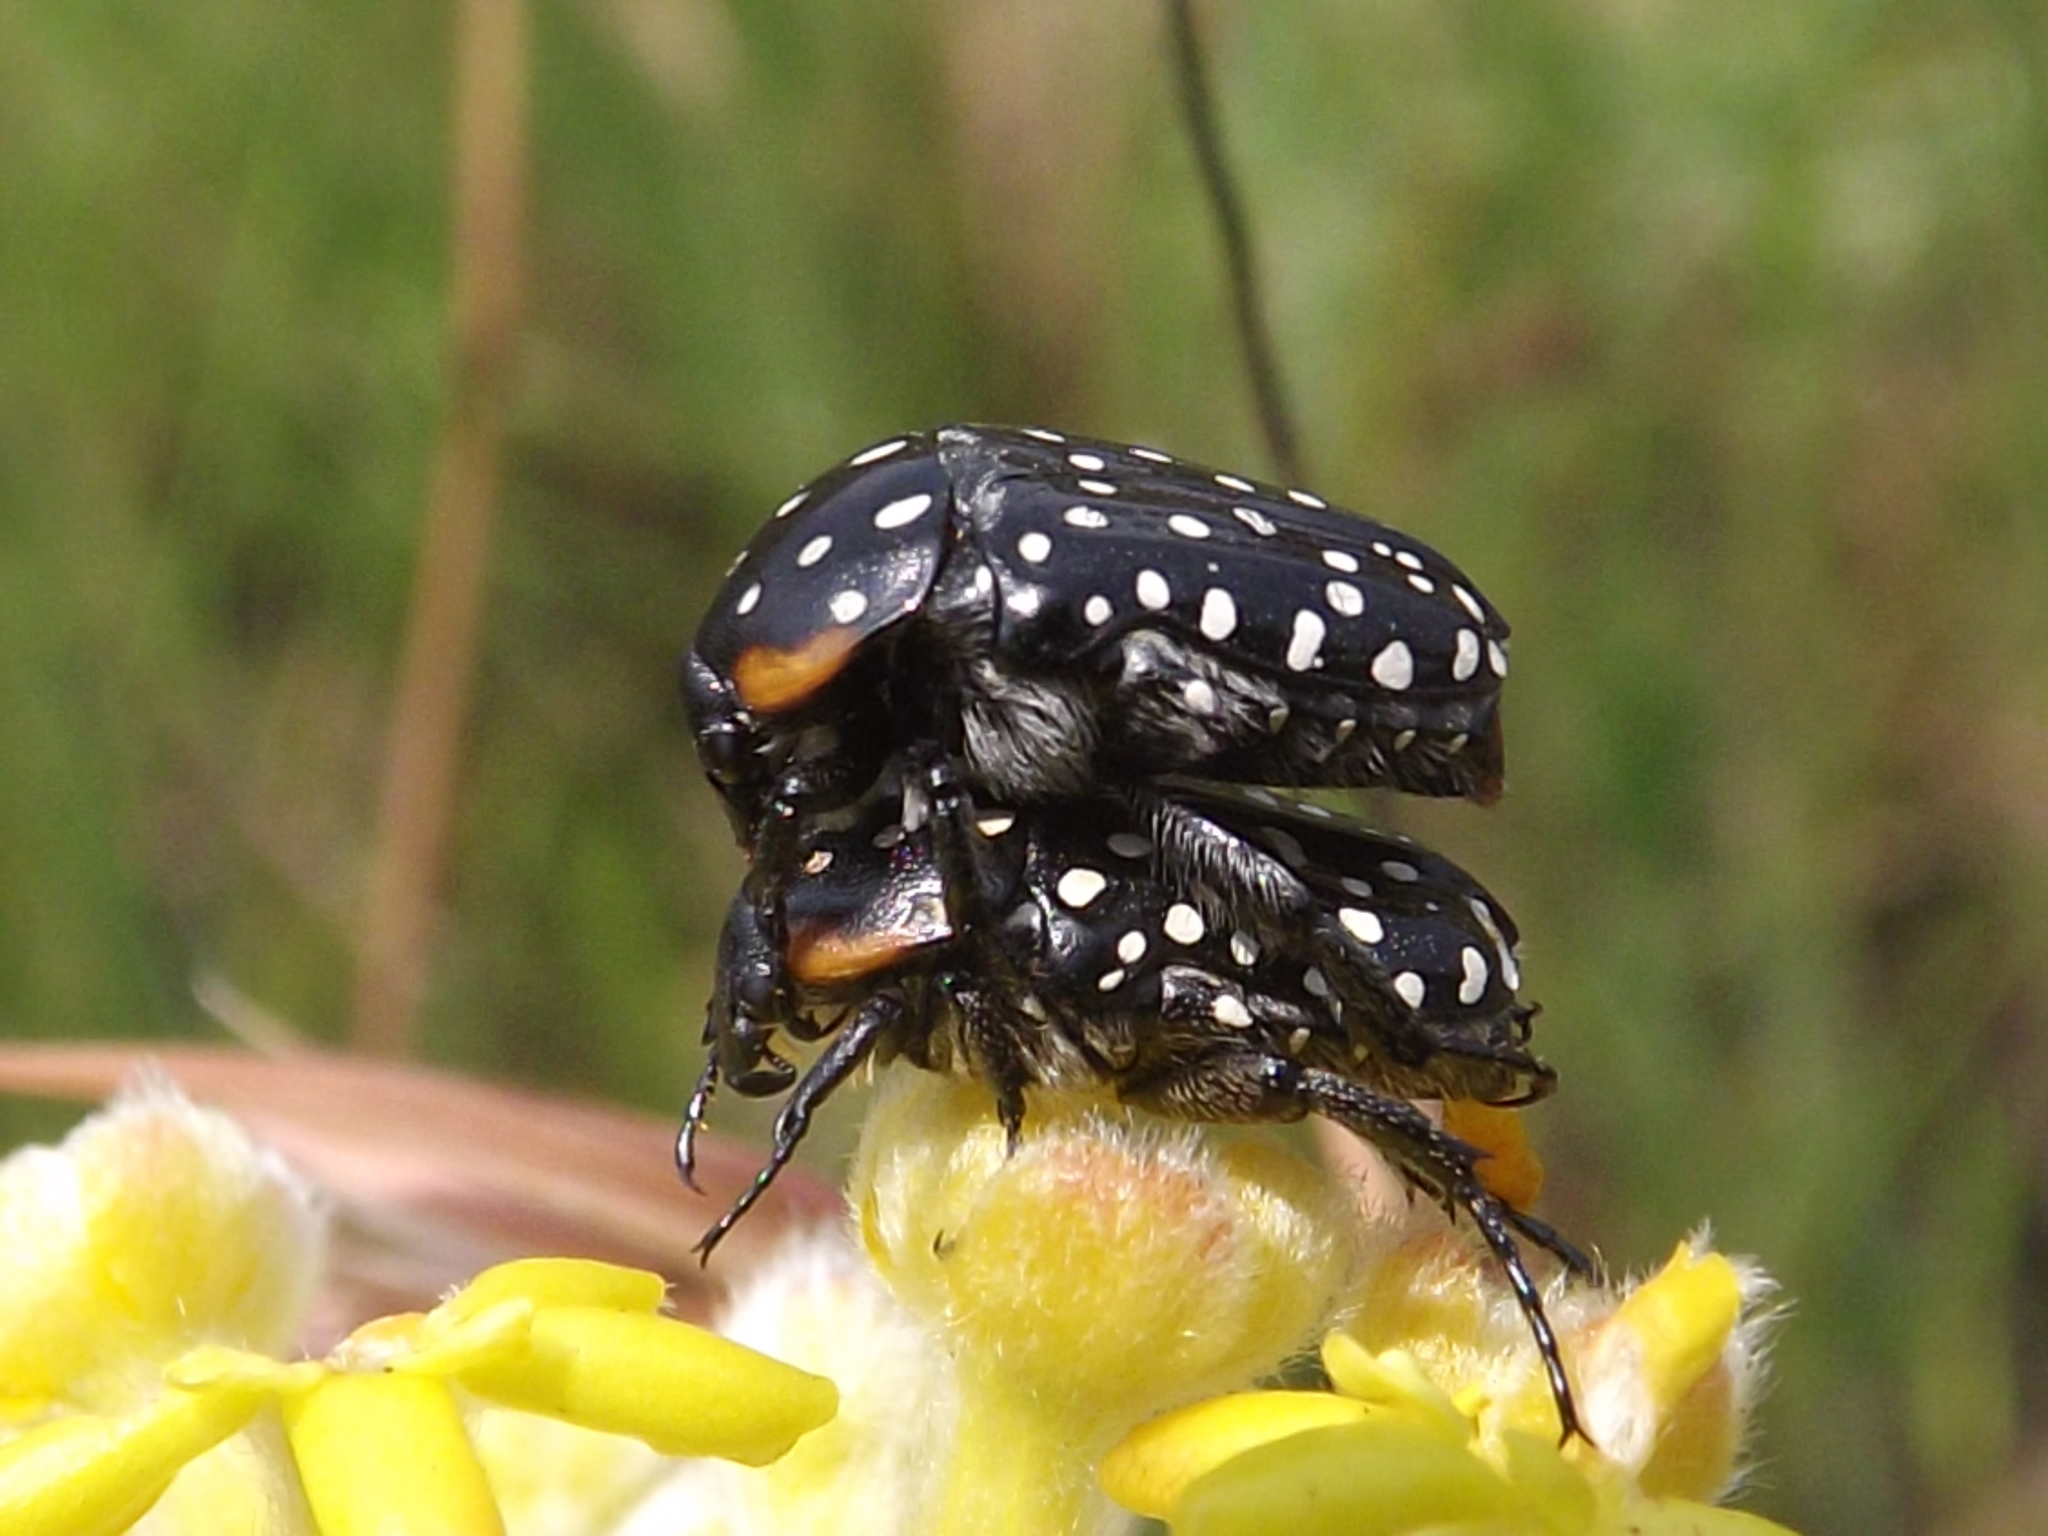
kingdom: Animalia
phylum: Arthropoda
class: Insecta
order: Coleoptera
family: Scarabaeidae
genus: Oxythyrea
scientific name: Oxythyrea
